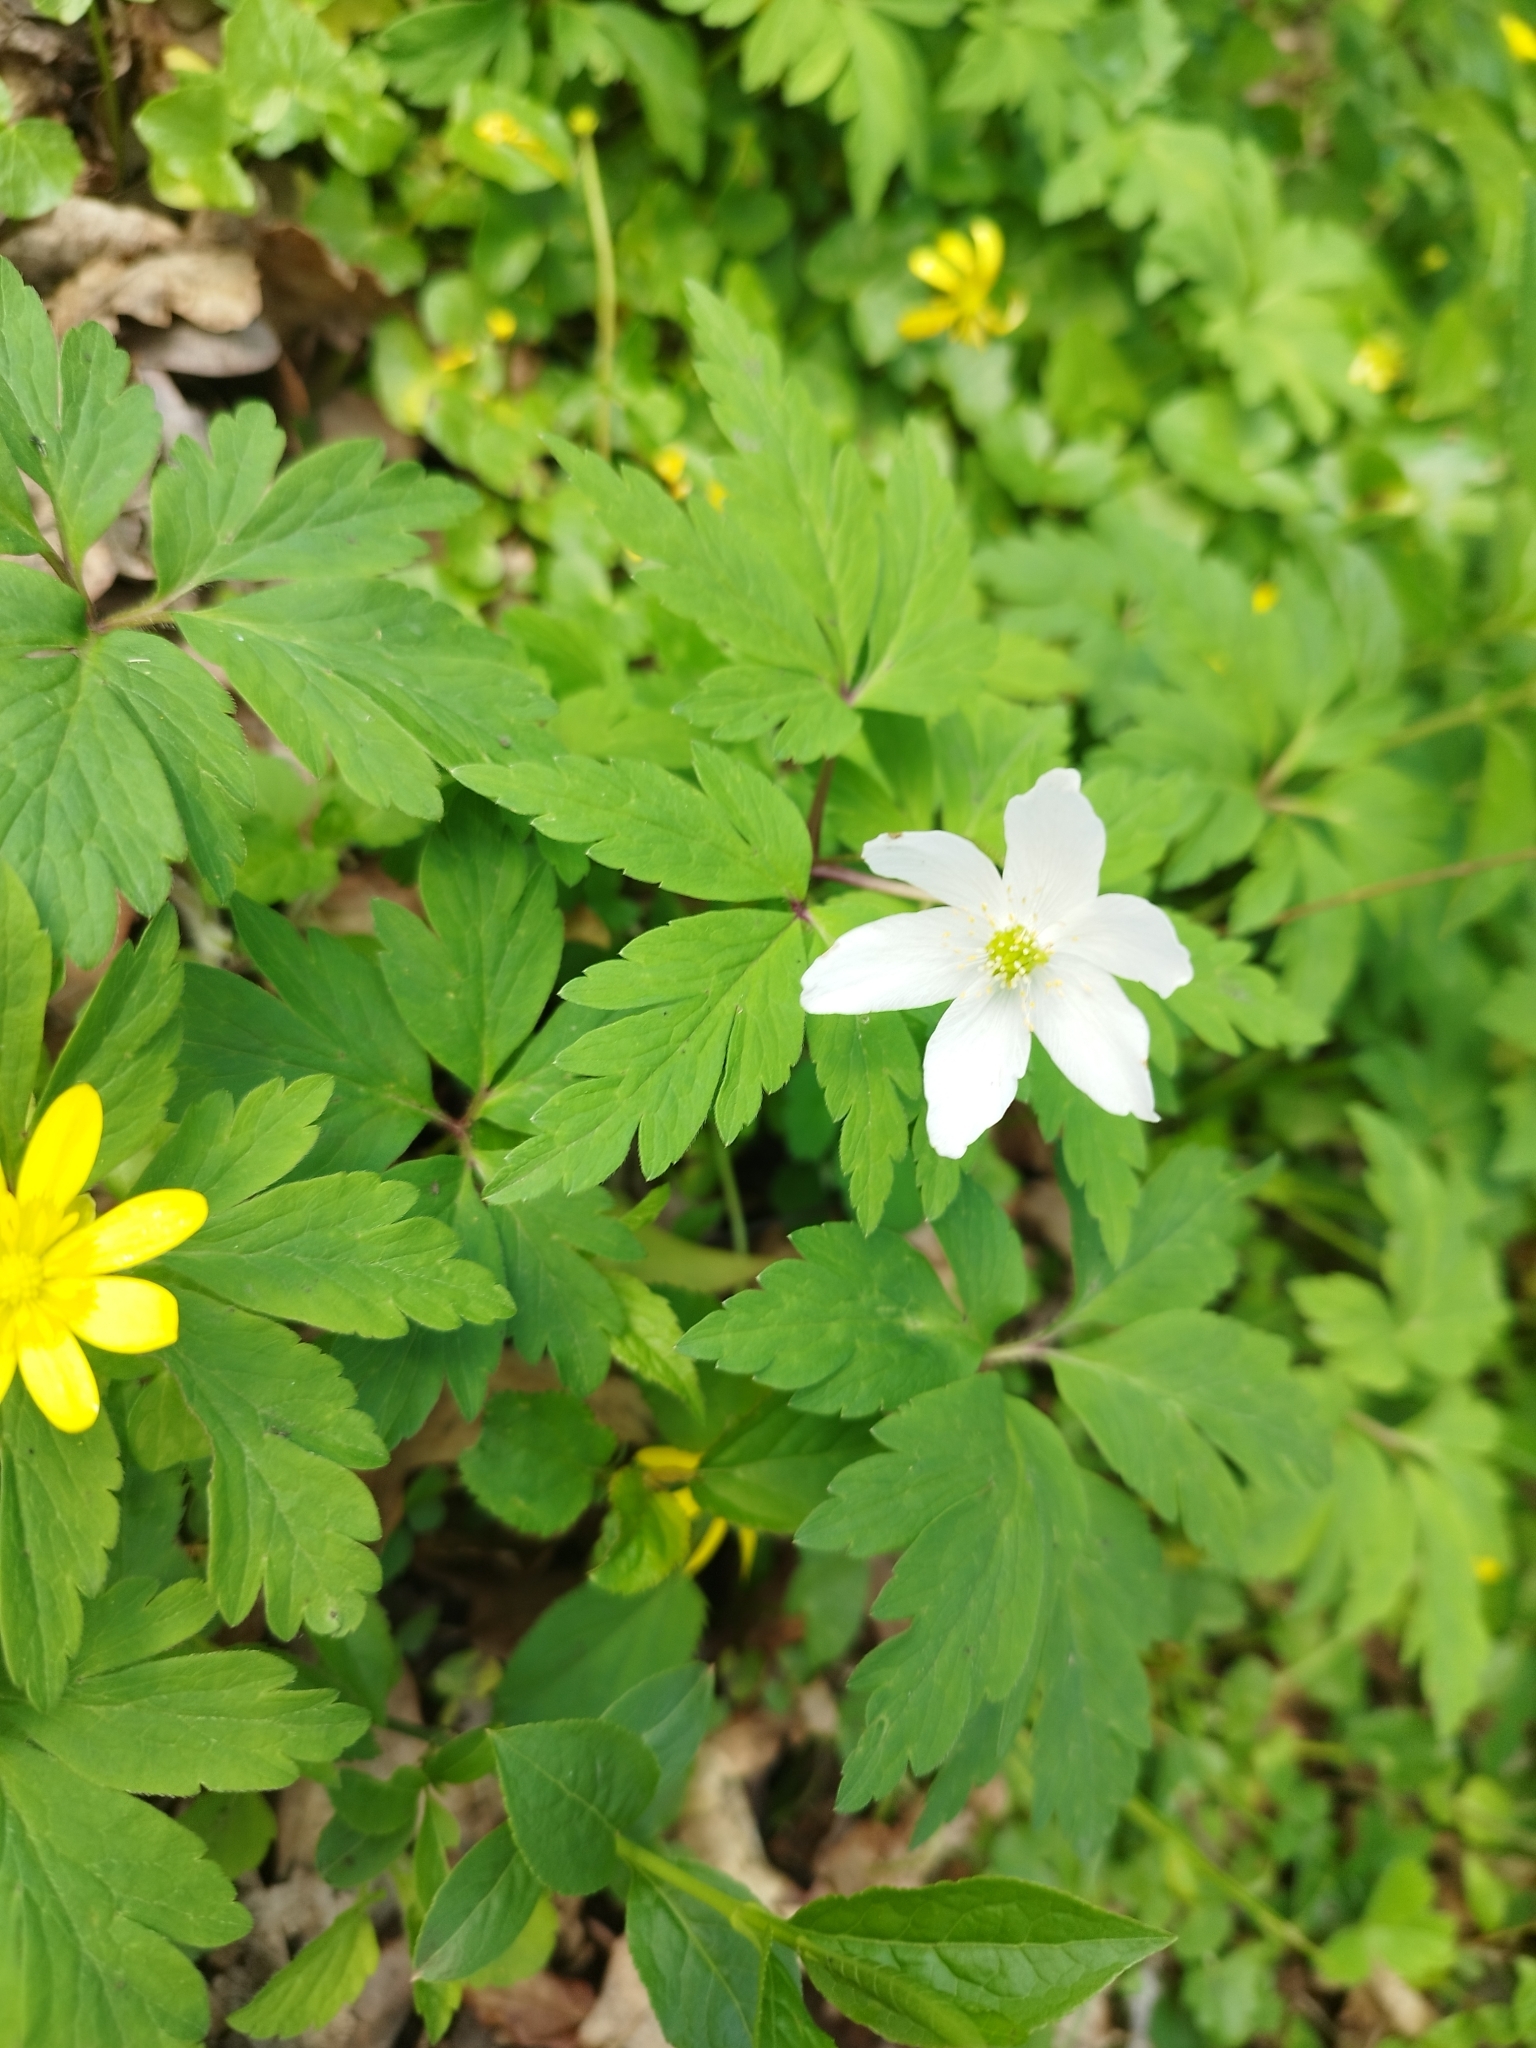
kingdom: Plantae
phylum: Tracheophyta
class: Magnoliopsida
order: Ranunculales
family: Ranunculaceae
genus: Anemone
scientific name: Anemone nemorosa
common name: Wood anemone
